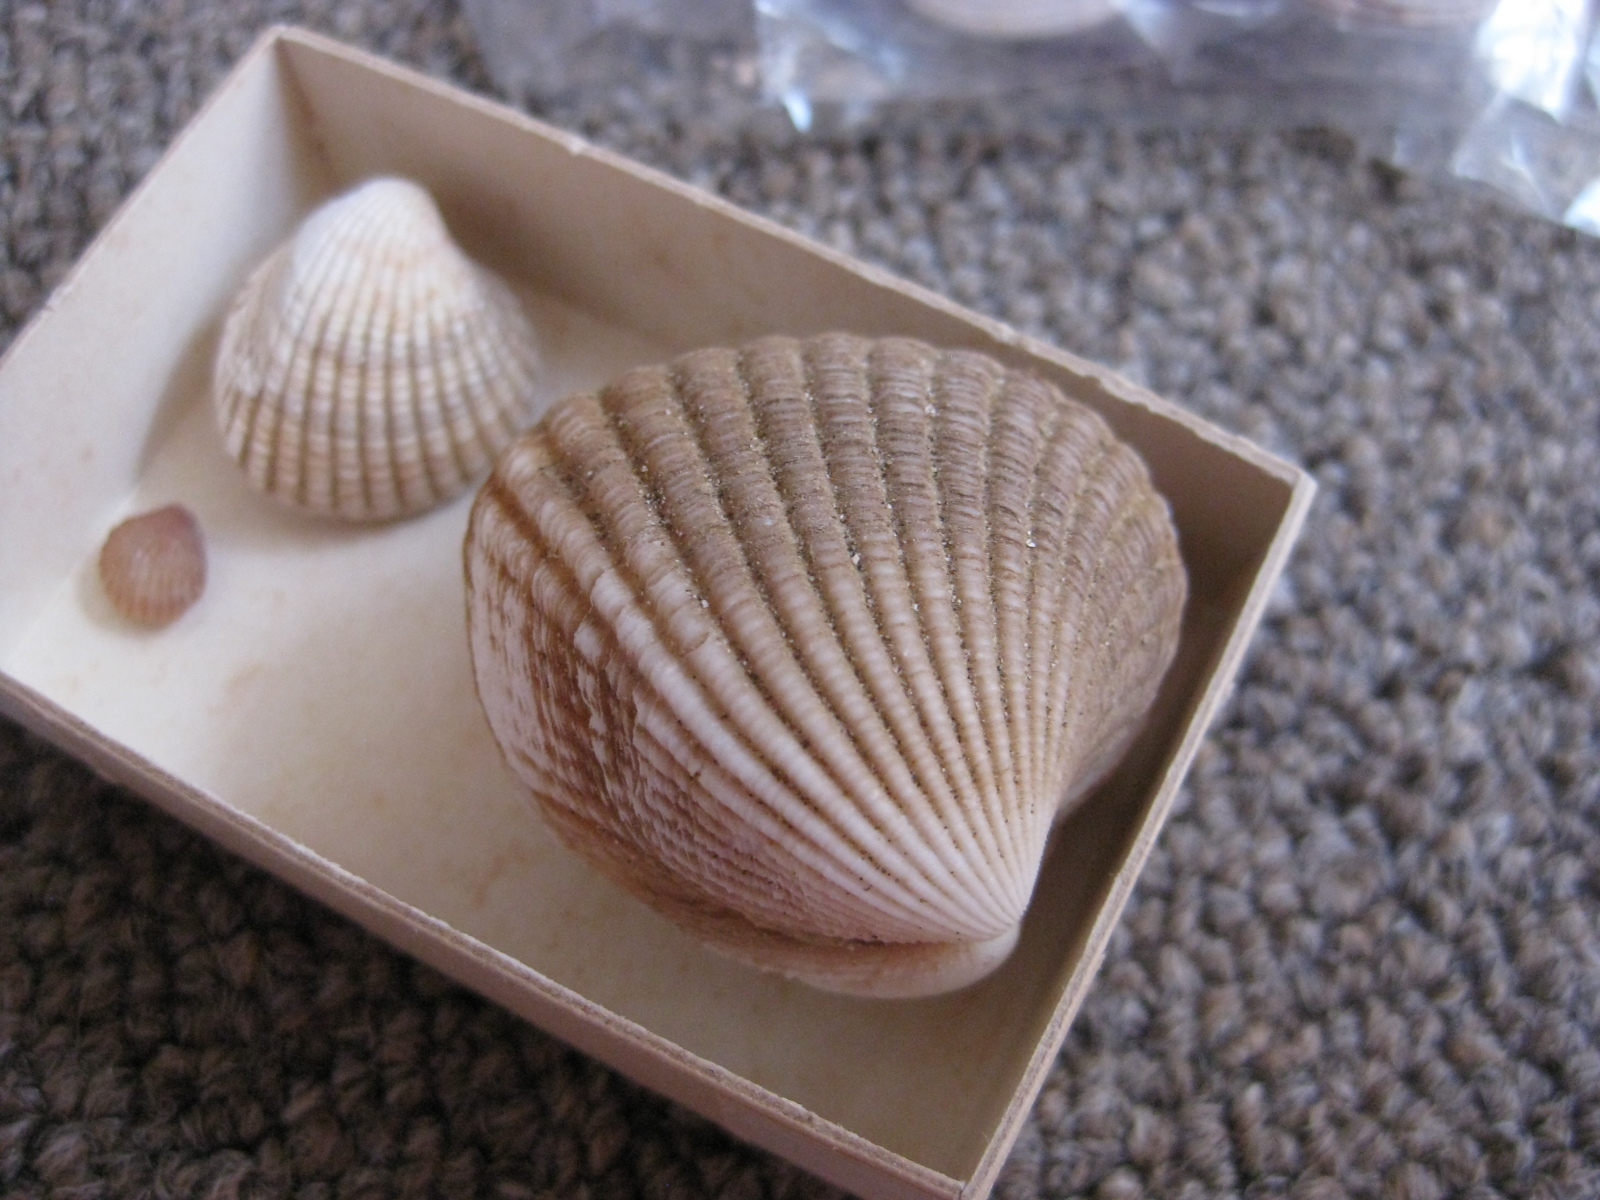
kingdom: Animalia
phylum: Mollusca
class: Bivalvia
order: Carditida
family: Carditidae
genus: Purpurocardia
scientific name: Purpurocardia purpurata
